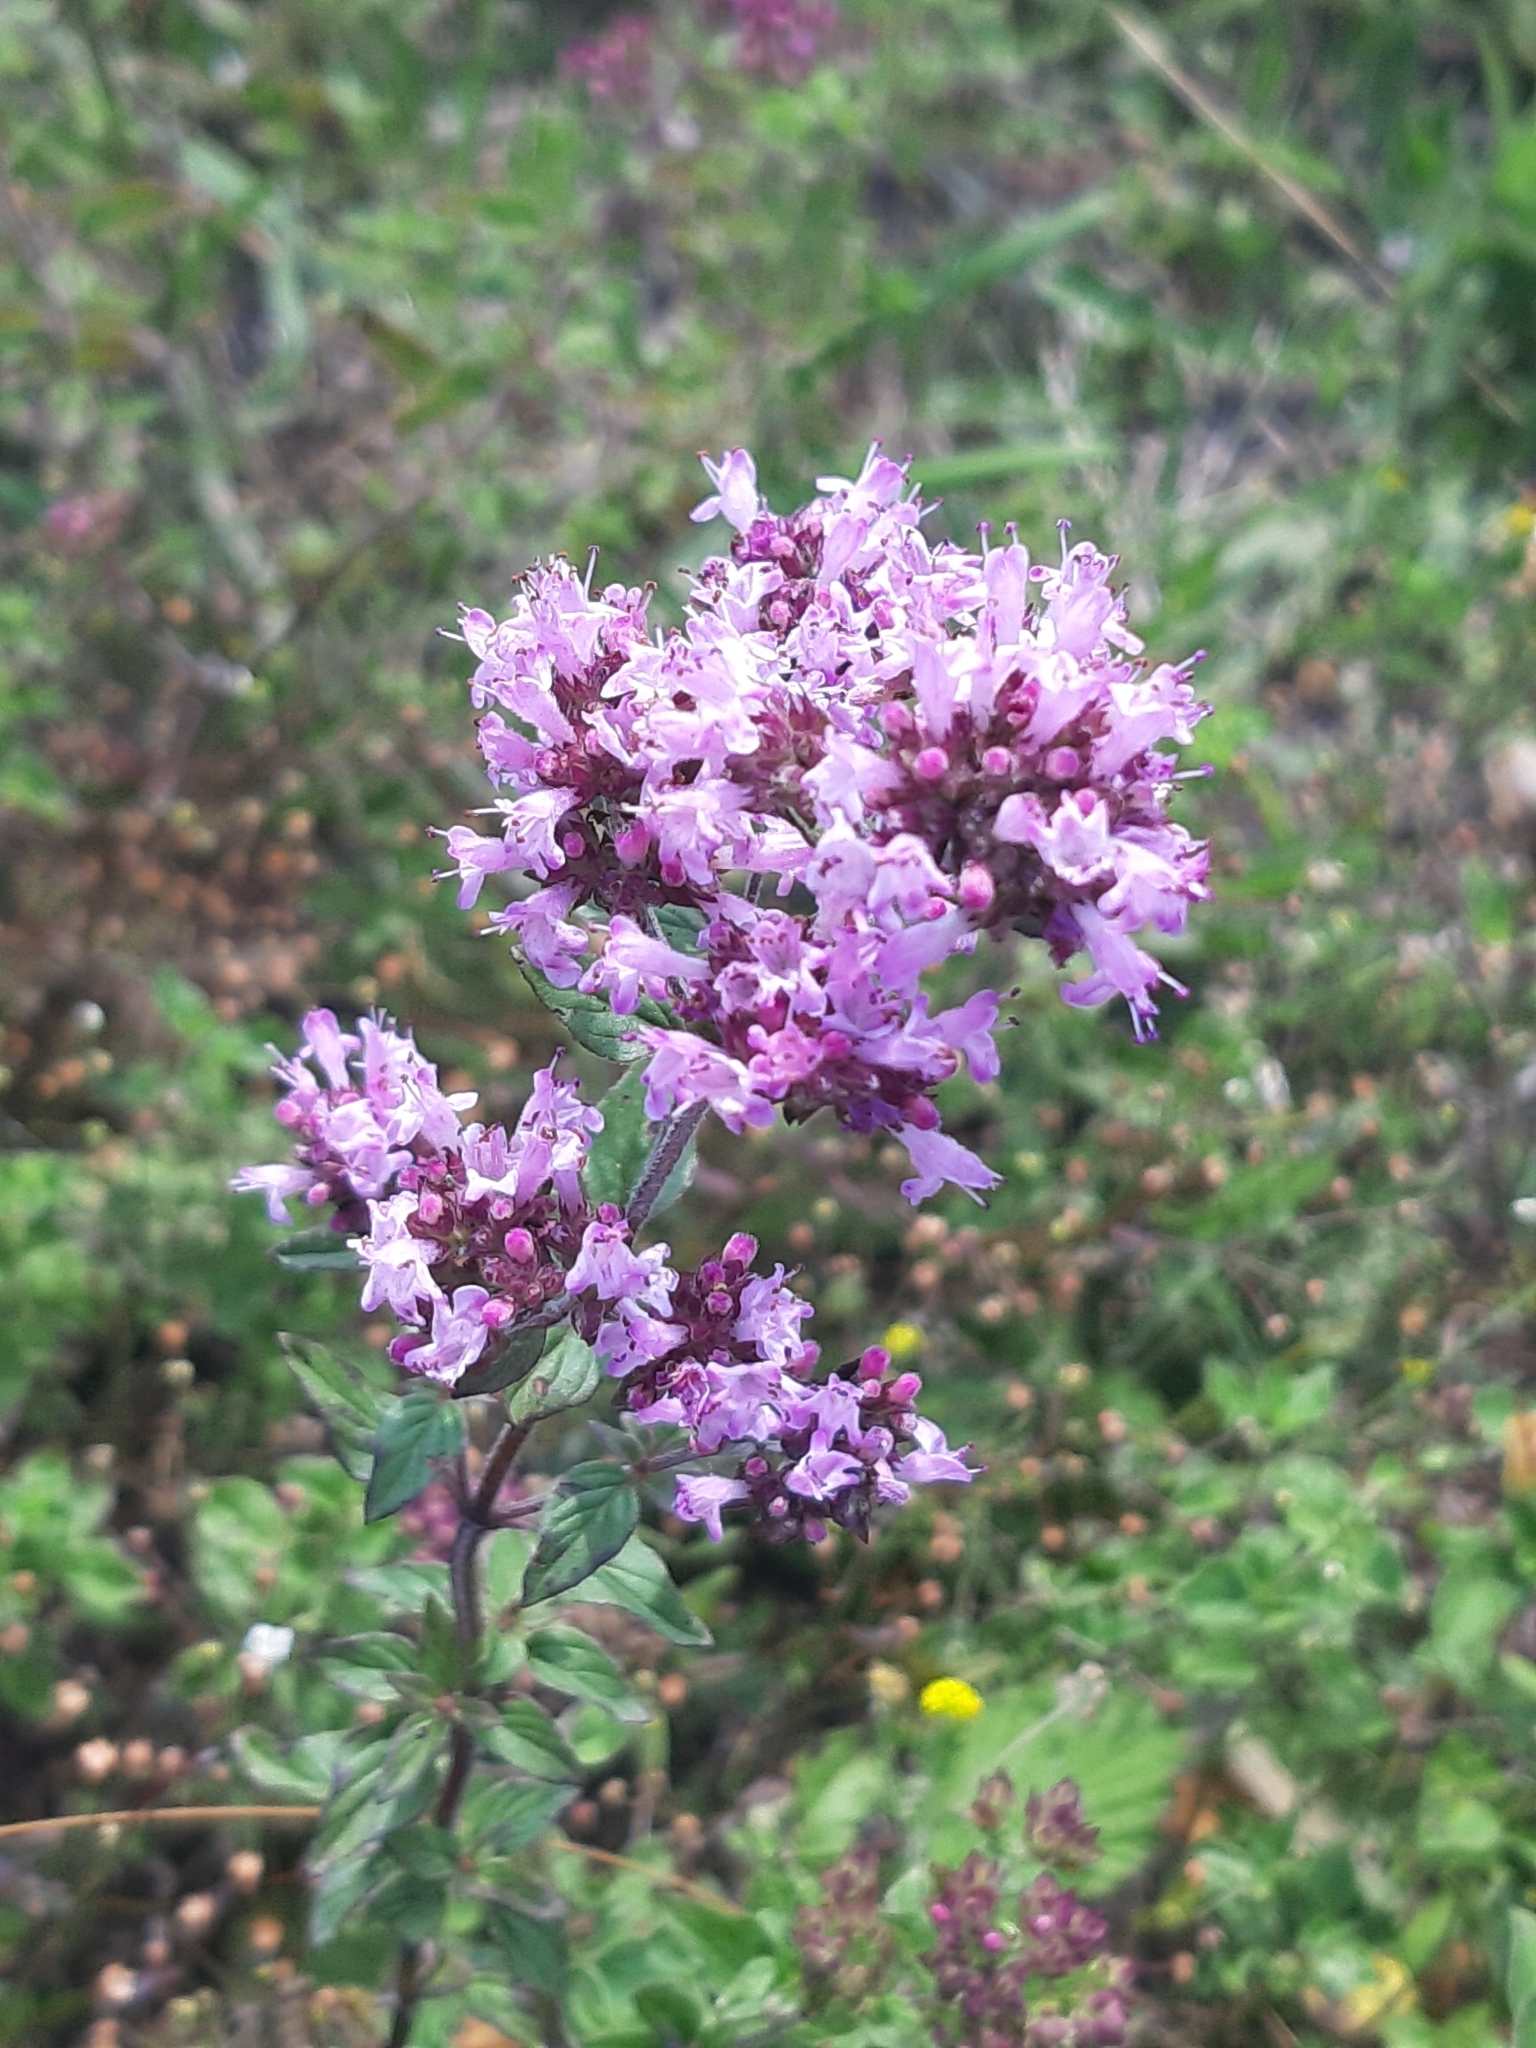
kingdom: Plantae
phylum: Tracheophyta
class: Magnoliopsida
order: Lamiales
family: Lamiaceae
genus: Origanum
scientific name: Origanum vulgare
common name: Wild marjoram
